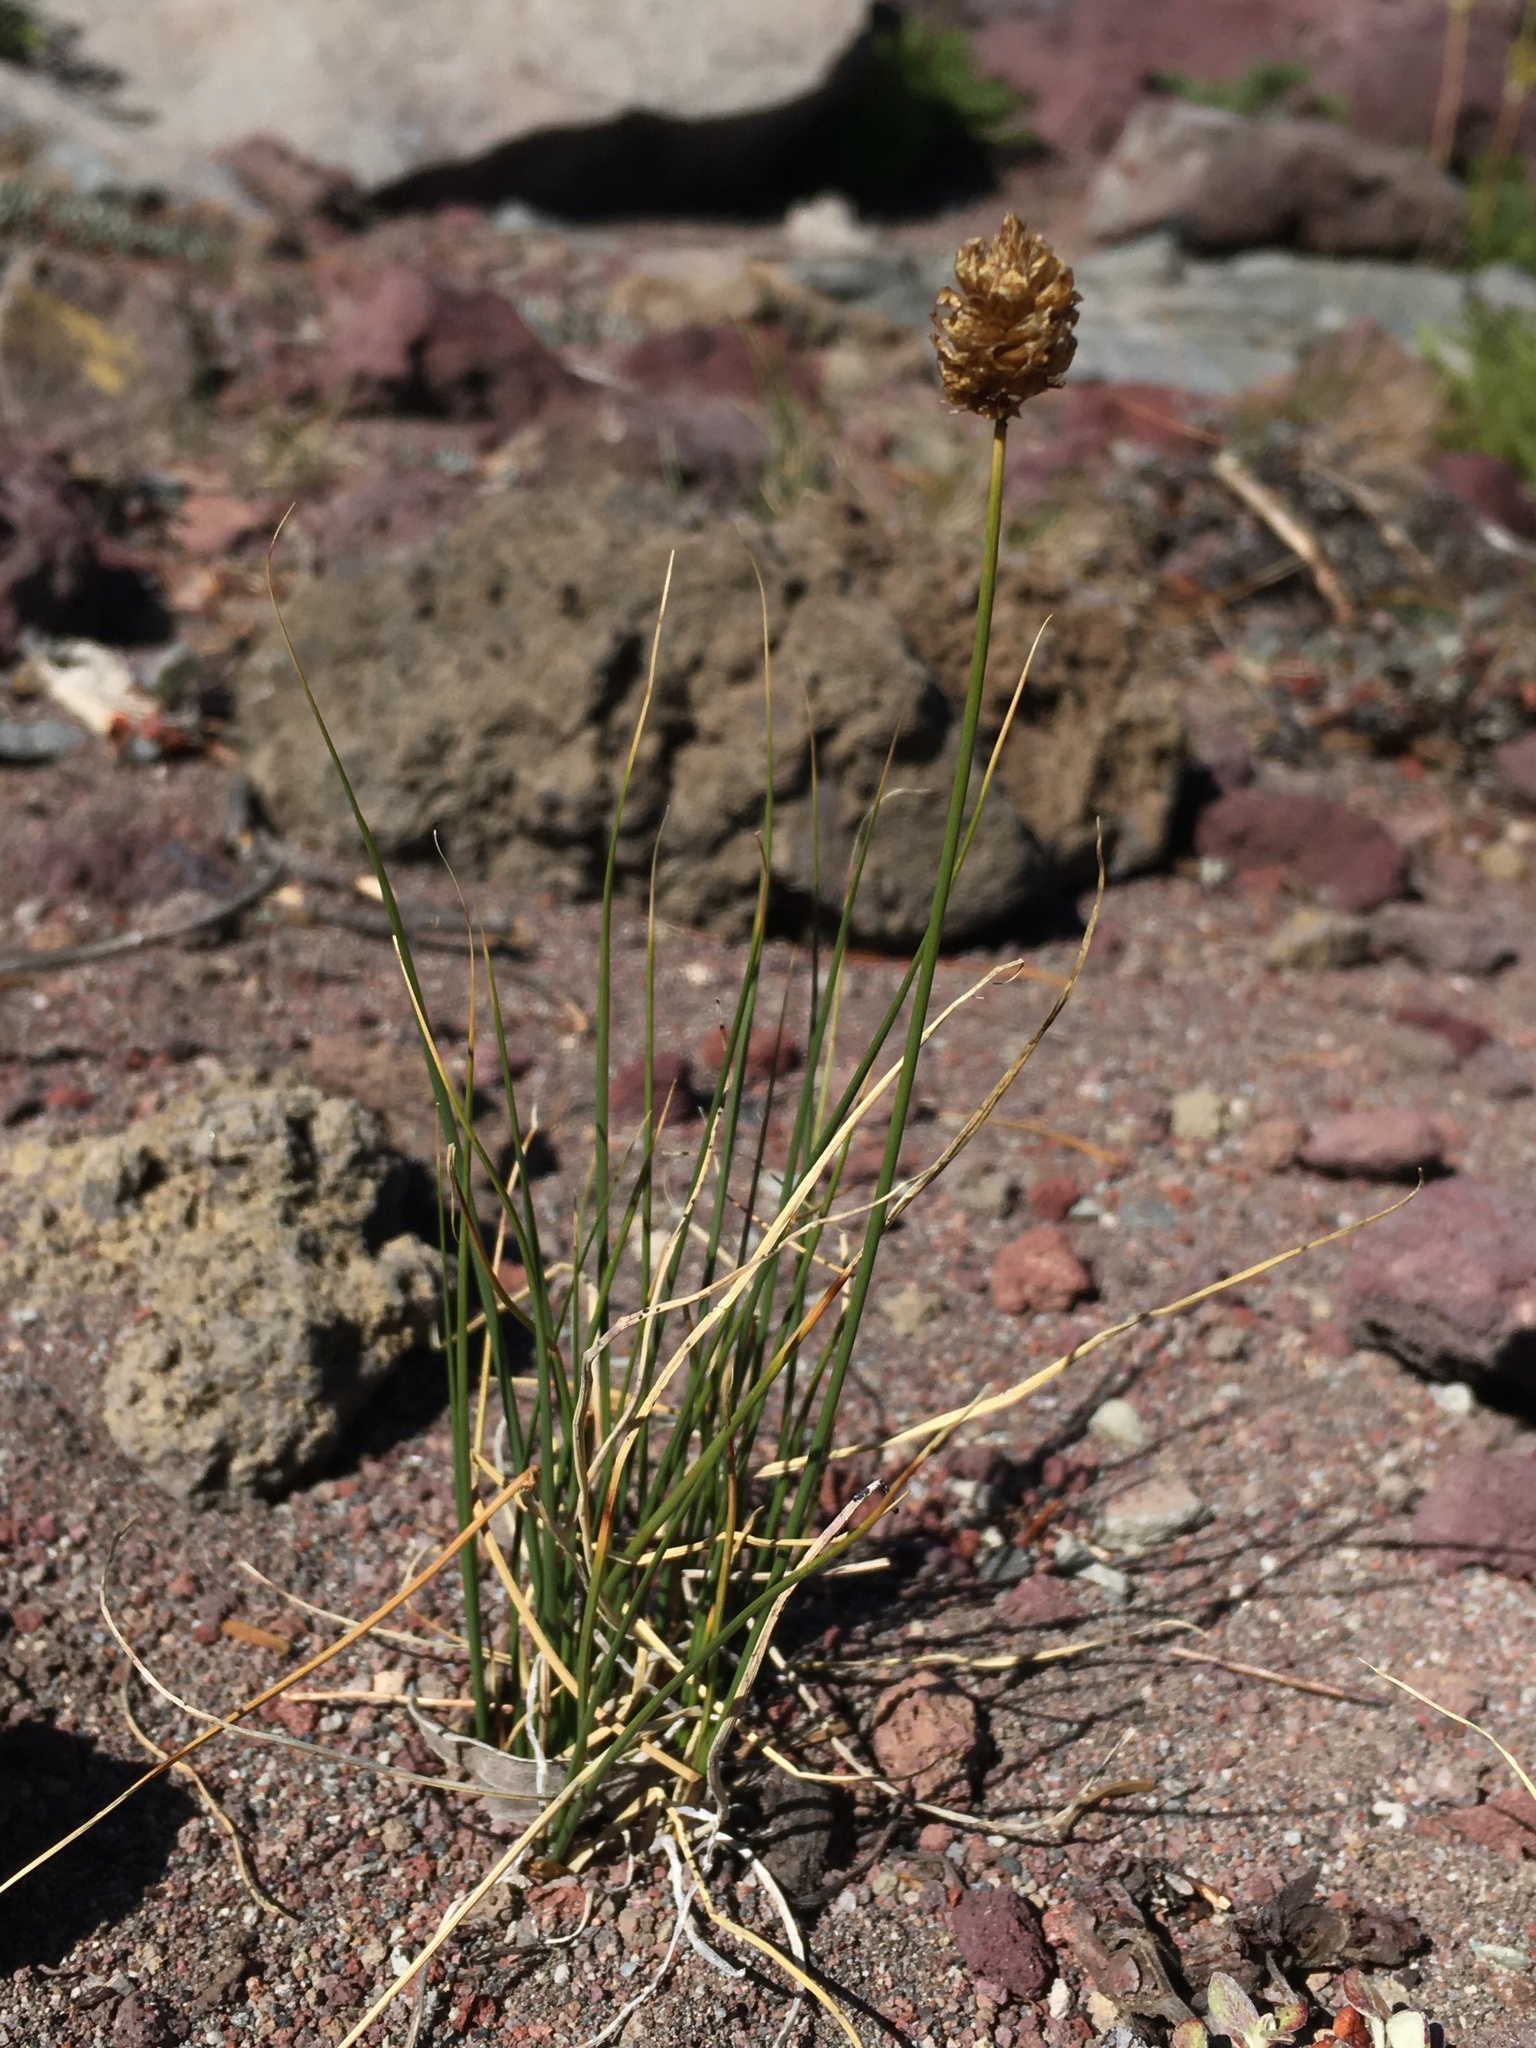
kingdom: Plantae
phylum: Tracheophyta
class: Liliopsida
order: Poales
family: Cyperaceae
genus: Carex
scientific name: Carex breweri
